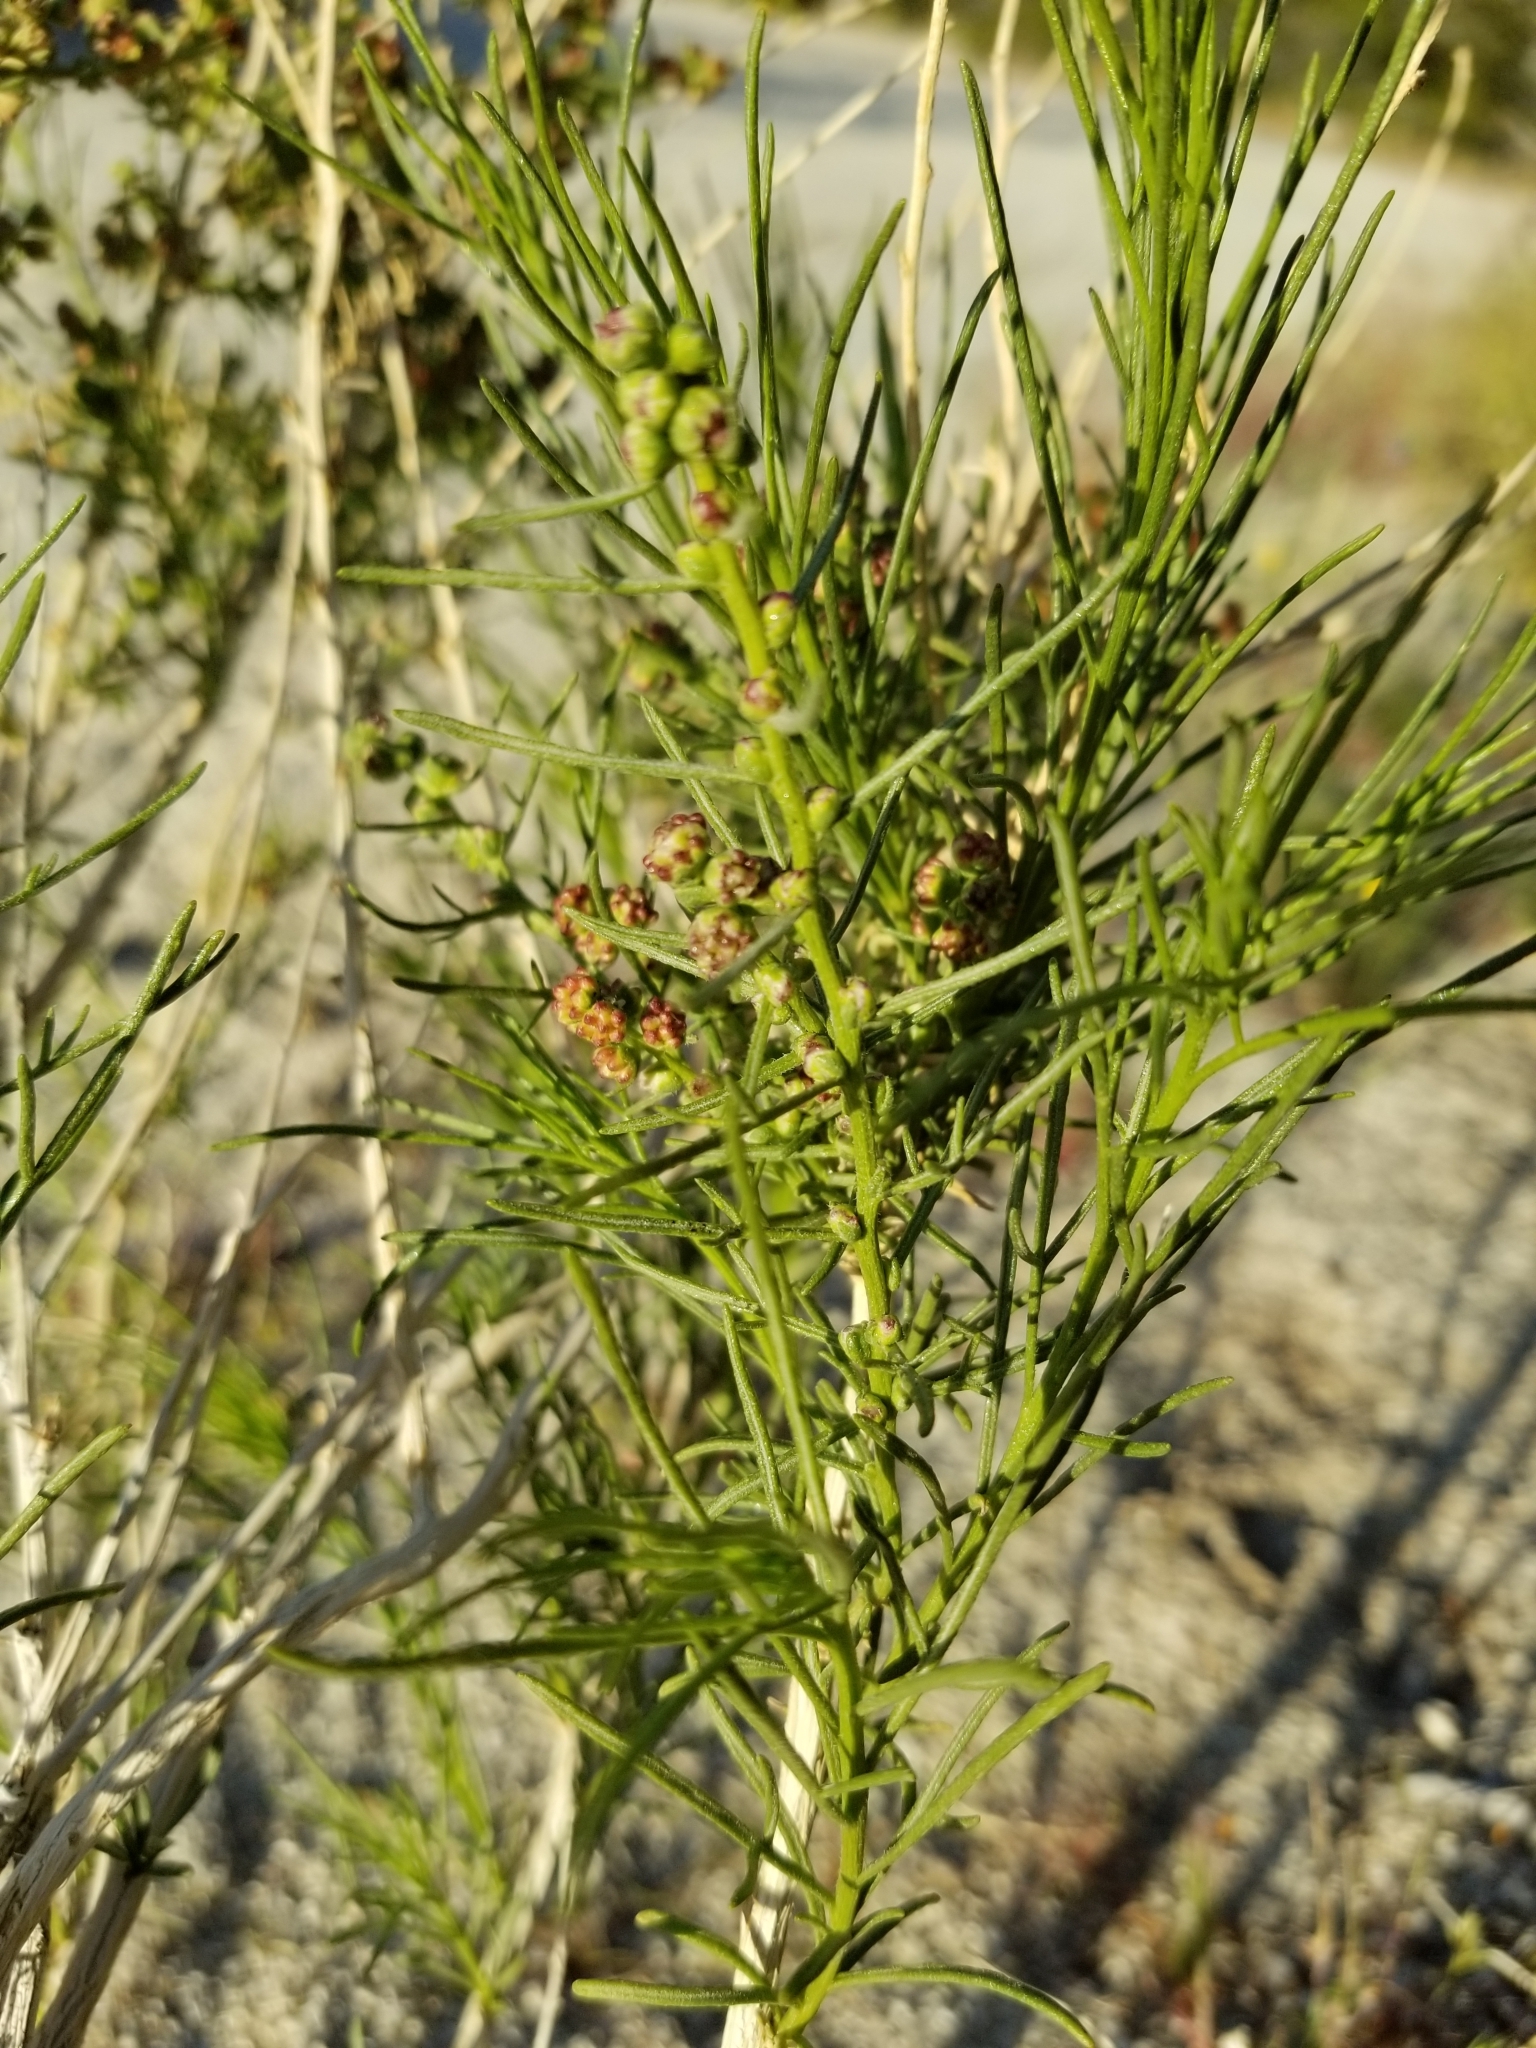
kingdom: Plantae
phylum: Tracheophyta
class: Magnoliopsida
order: Asterales
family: Asteraceae
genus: Ambrosia
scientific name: Ambrosia salsola
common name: Burrobrush
